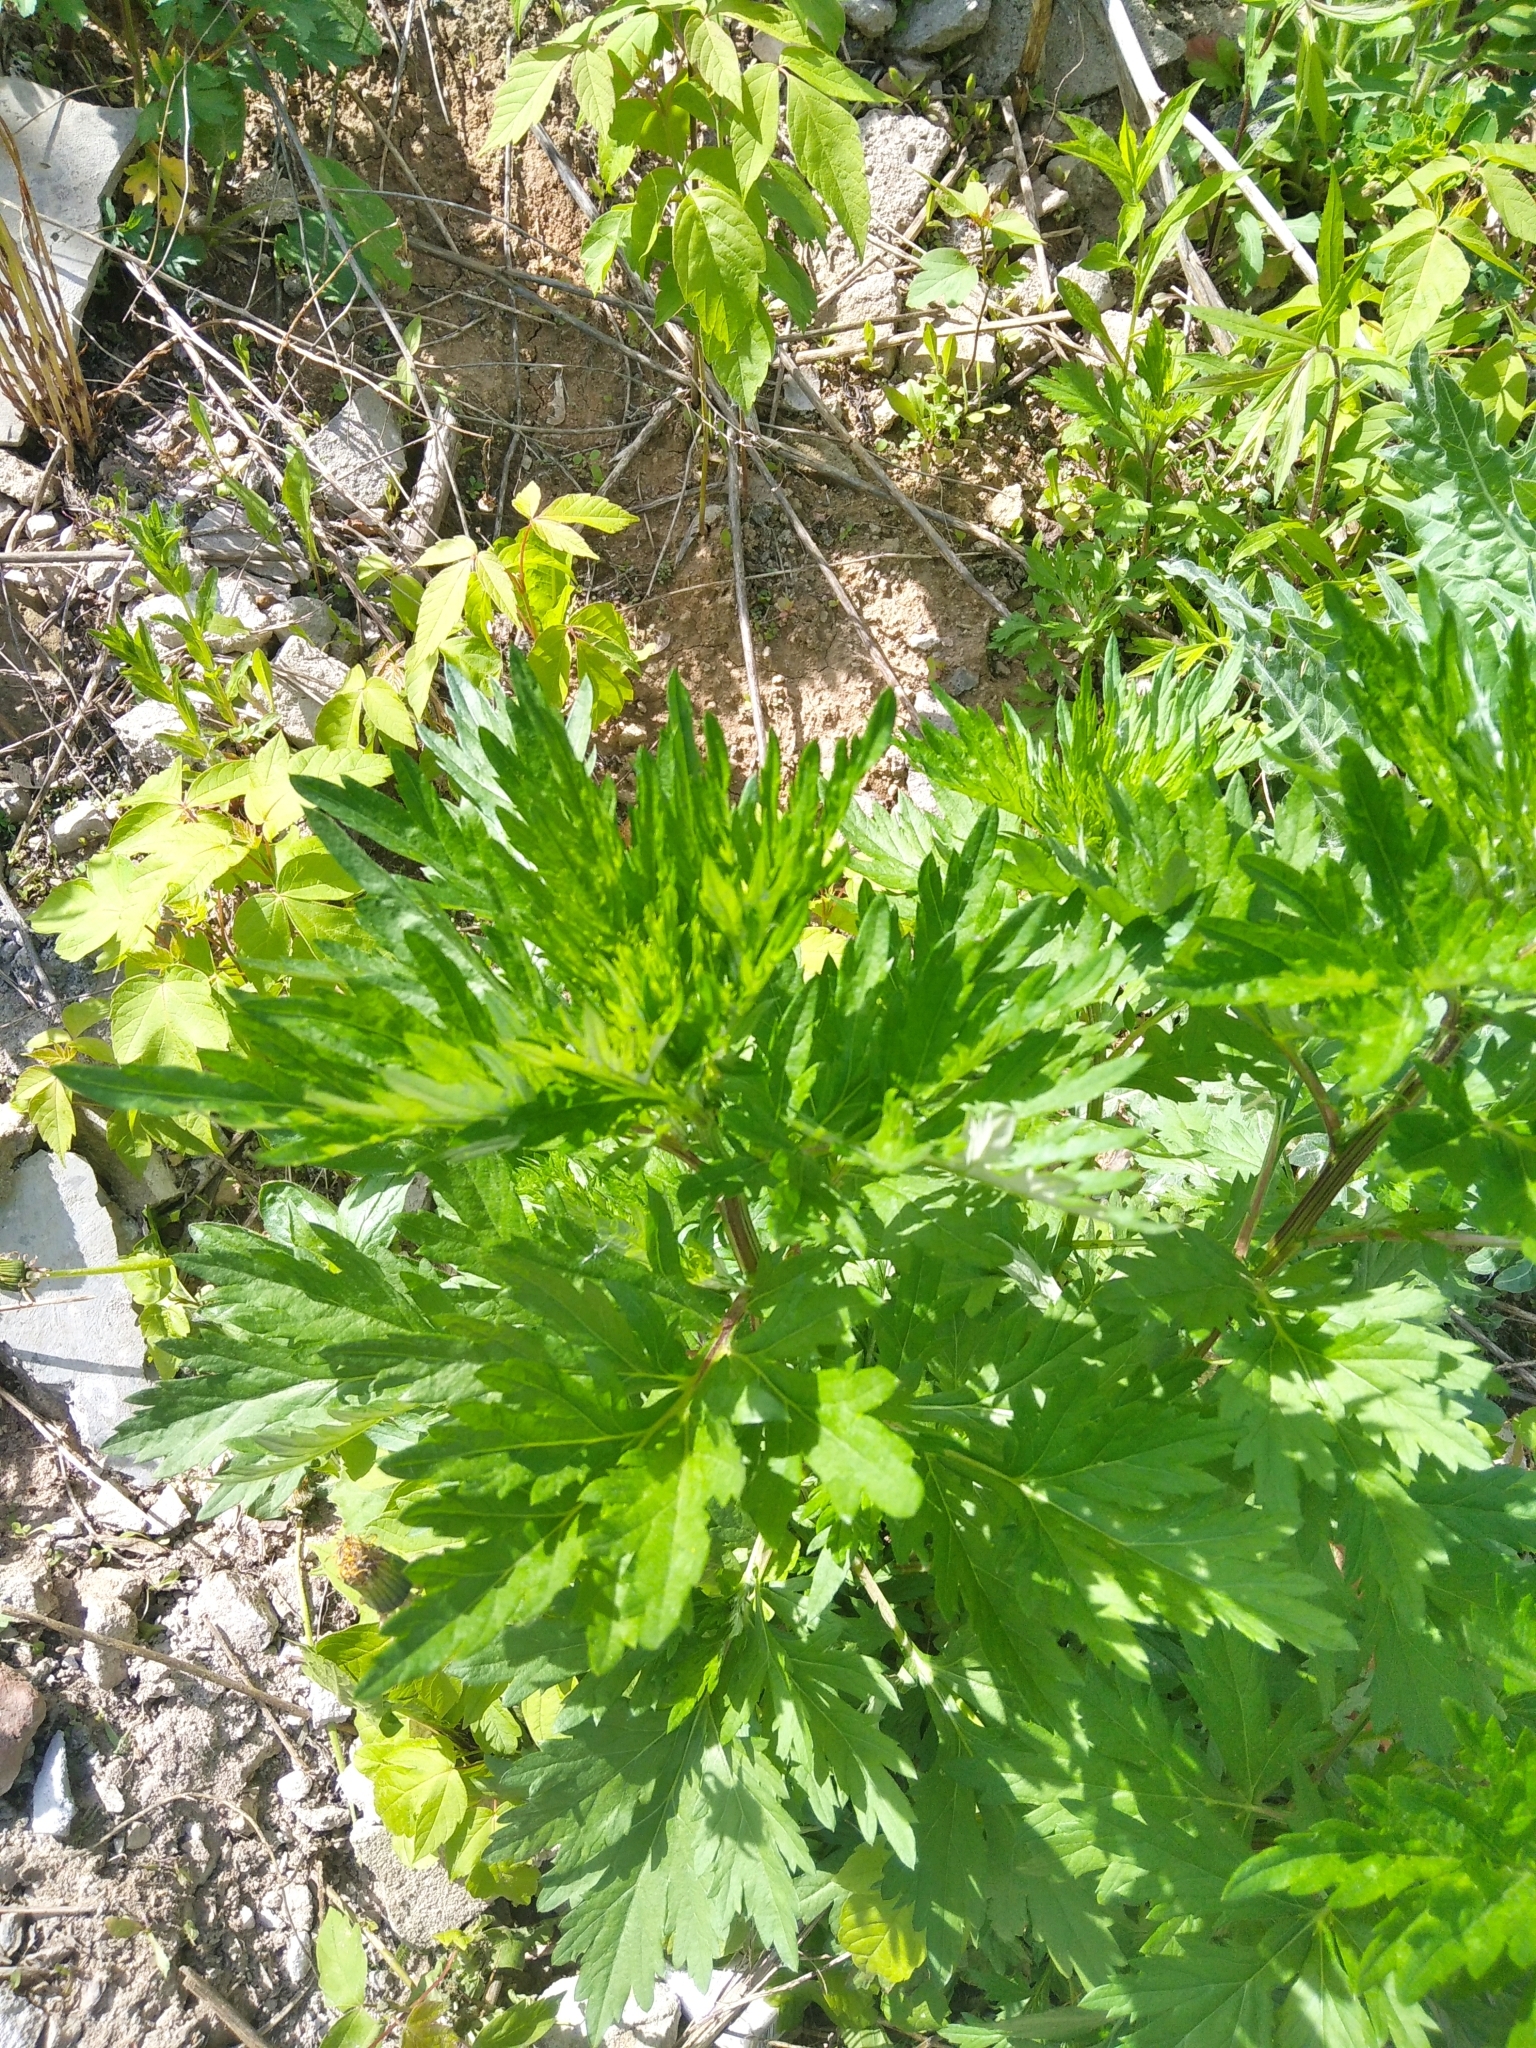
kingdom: Plantae
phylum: Tracheophyta
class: Magnoliopsida
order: Asterales
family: Asteraceae
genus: Artemisia
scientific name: Artemisia vulgaris
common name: Mugwort
